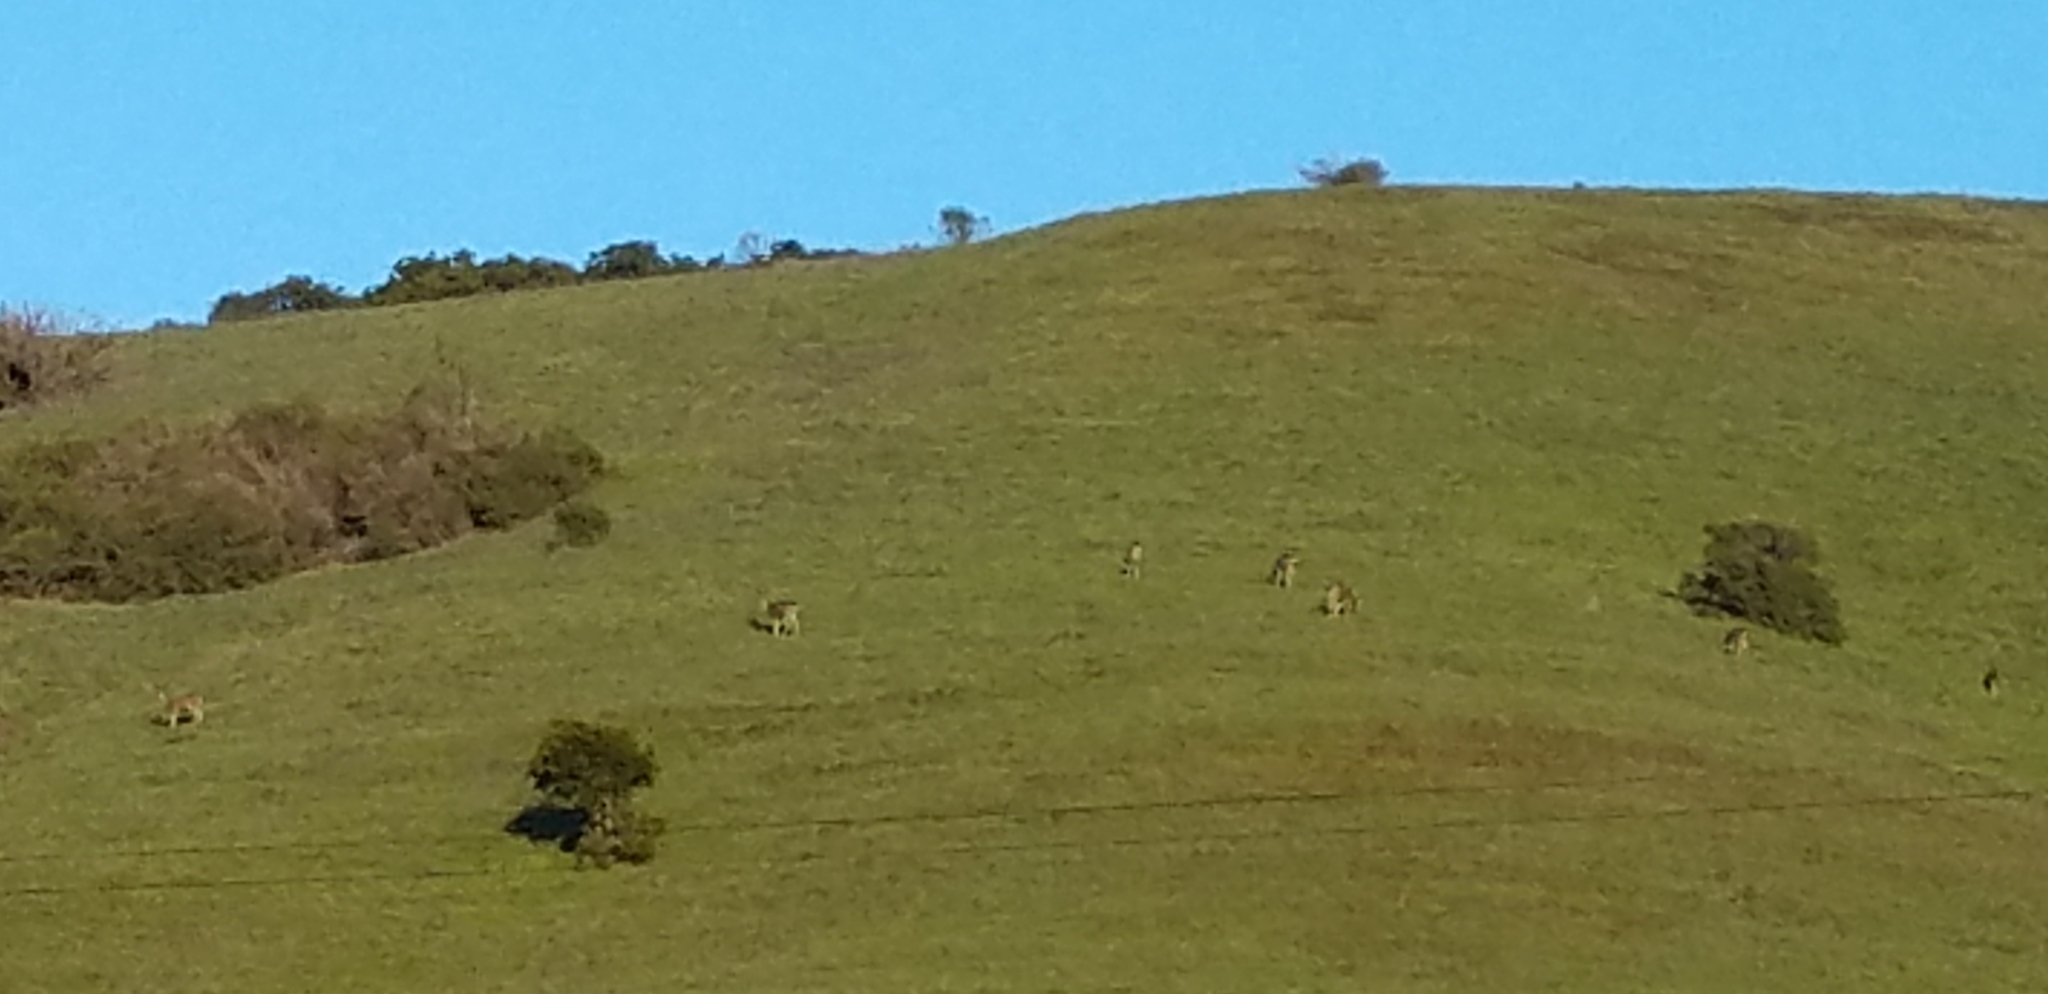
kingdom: Animalia
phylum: Chordata
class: Mammalia
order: Artiodactyla
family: Cervidae
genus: Odocoileus
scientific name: Odocoileus hemionus
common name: Mule deer
